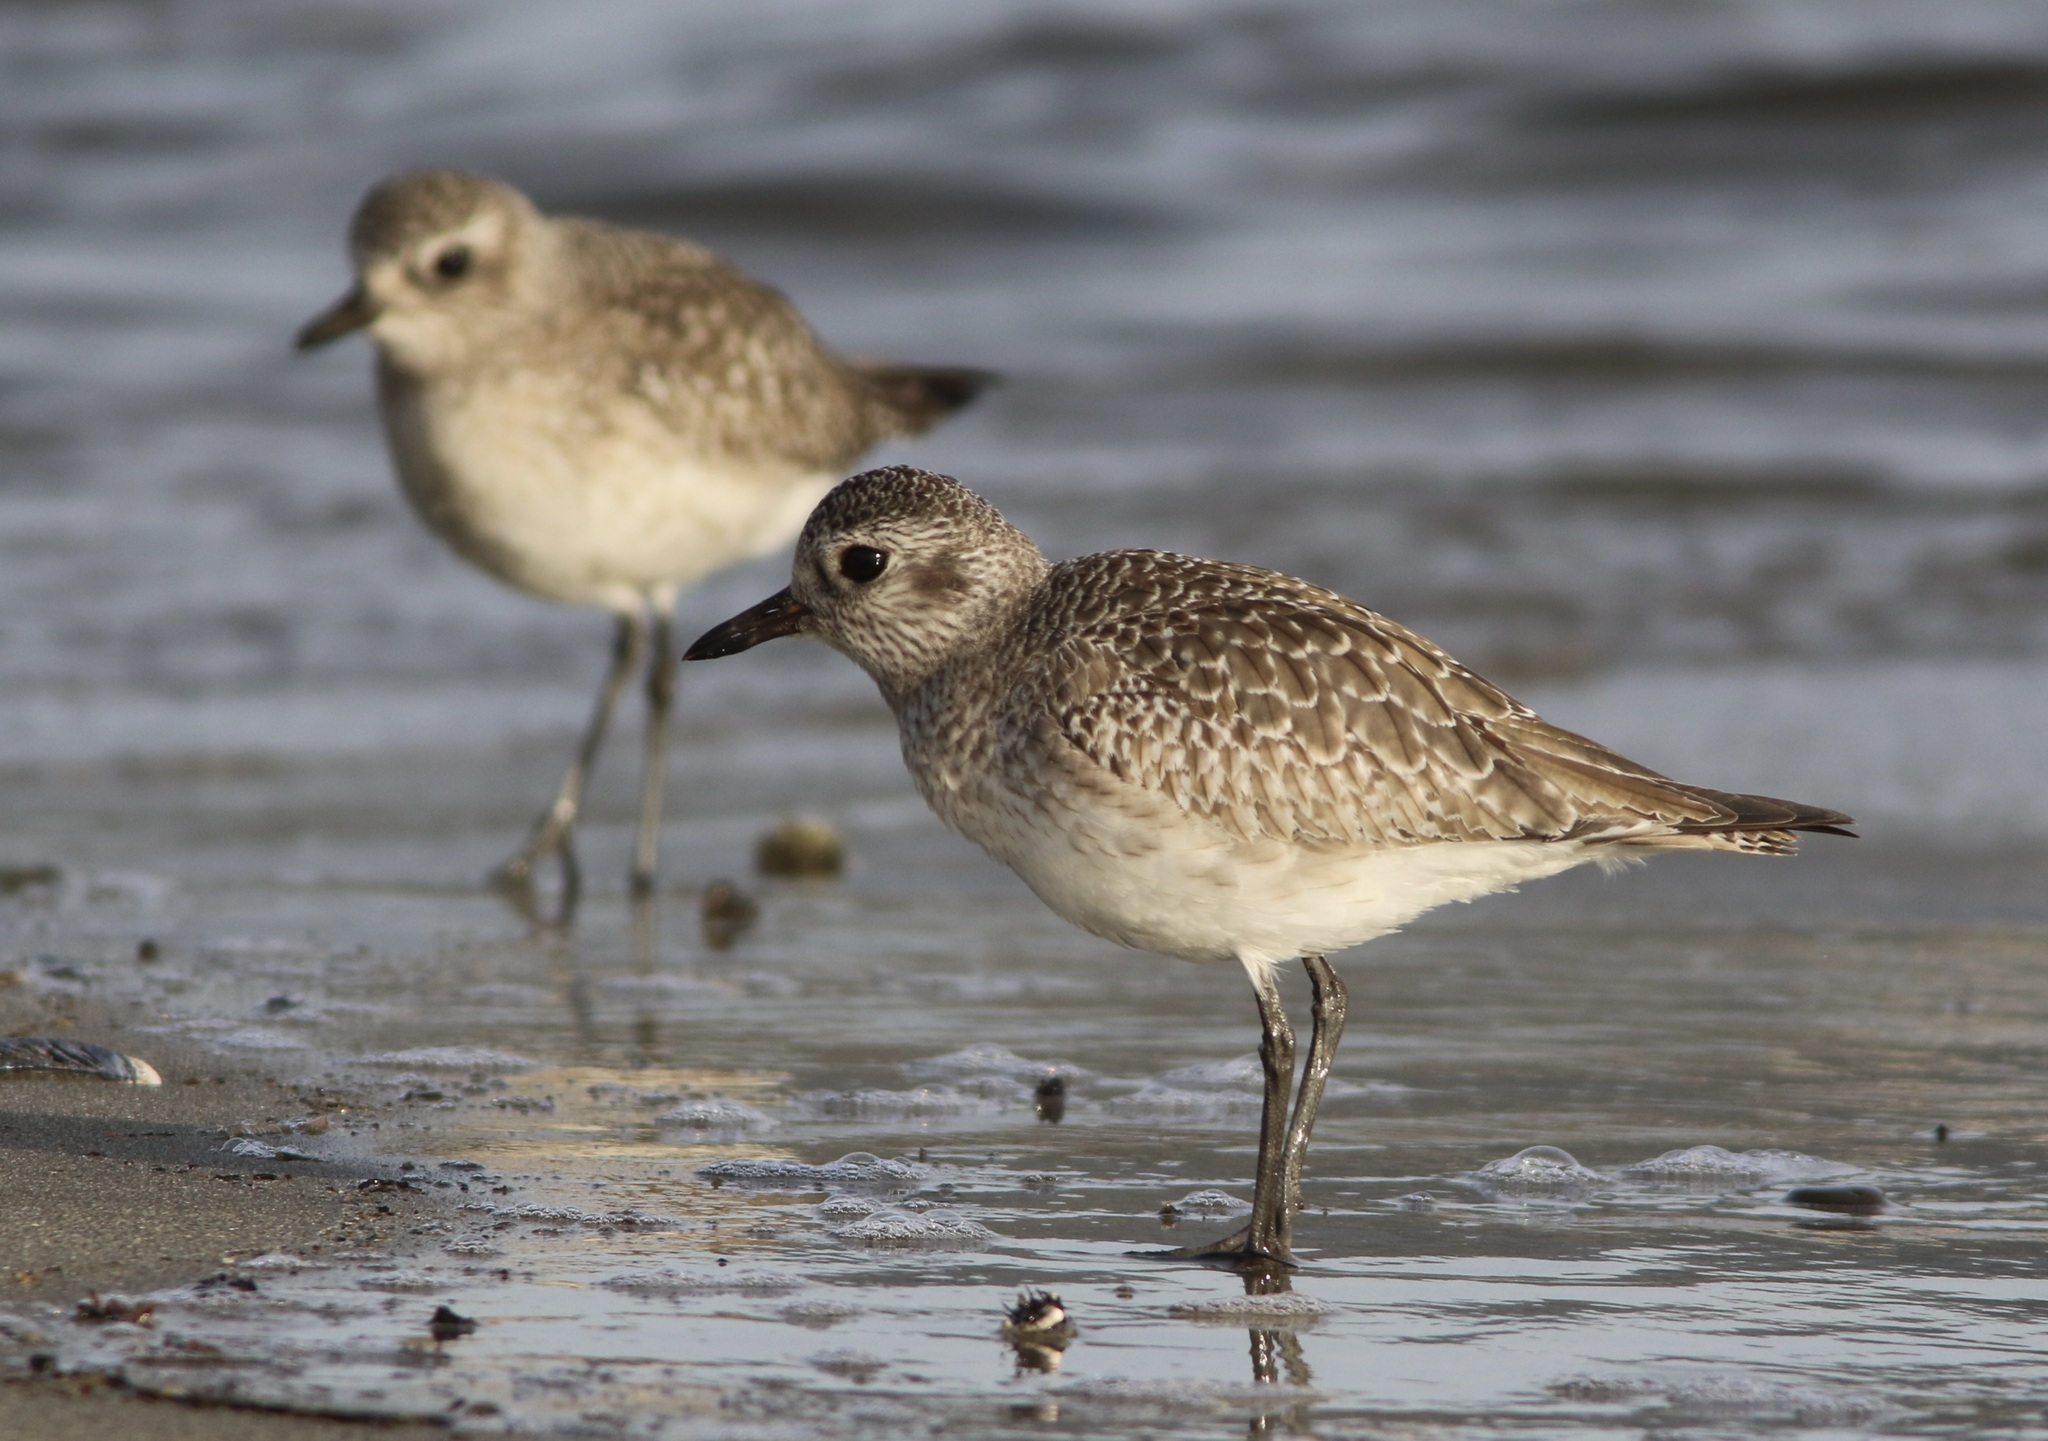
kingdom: Animalia
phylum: Chordata
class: Aves
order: Charadriiformes
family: Charadriidae
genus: Pluvialis
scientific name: Pluvialis squatarola
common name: Grey plover
